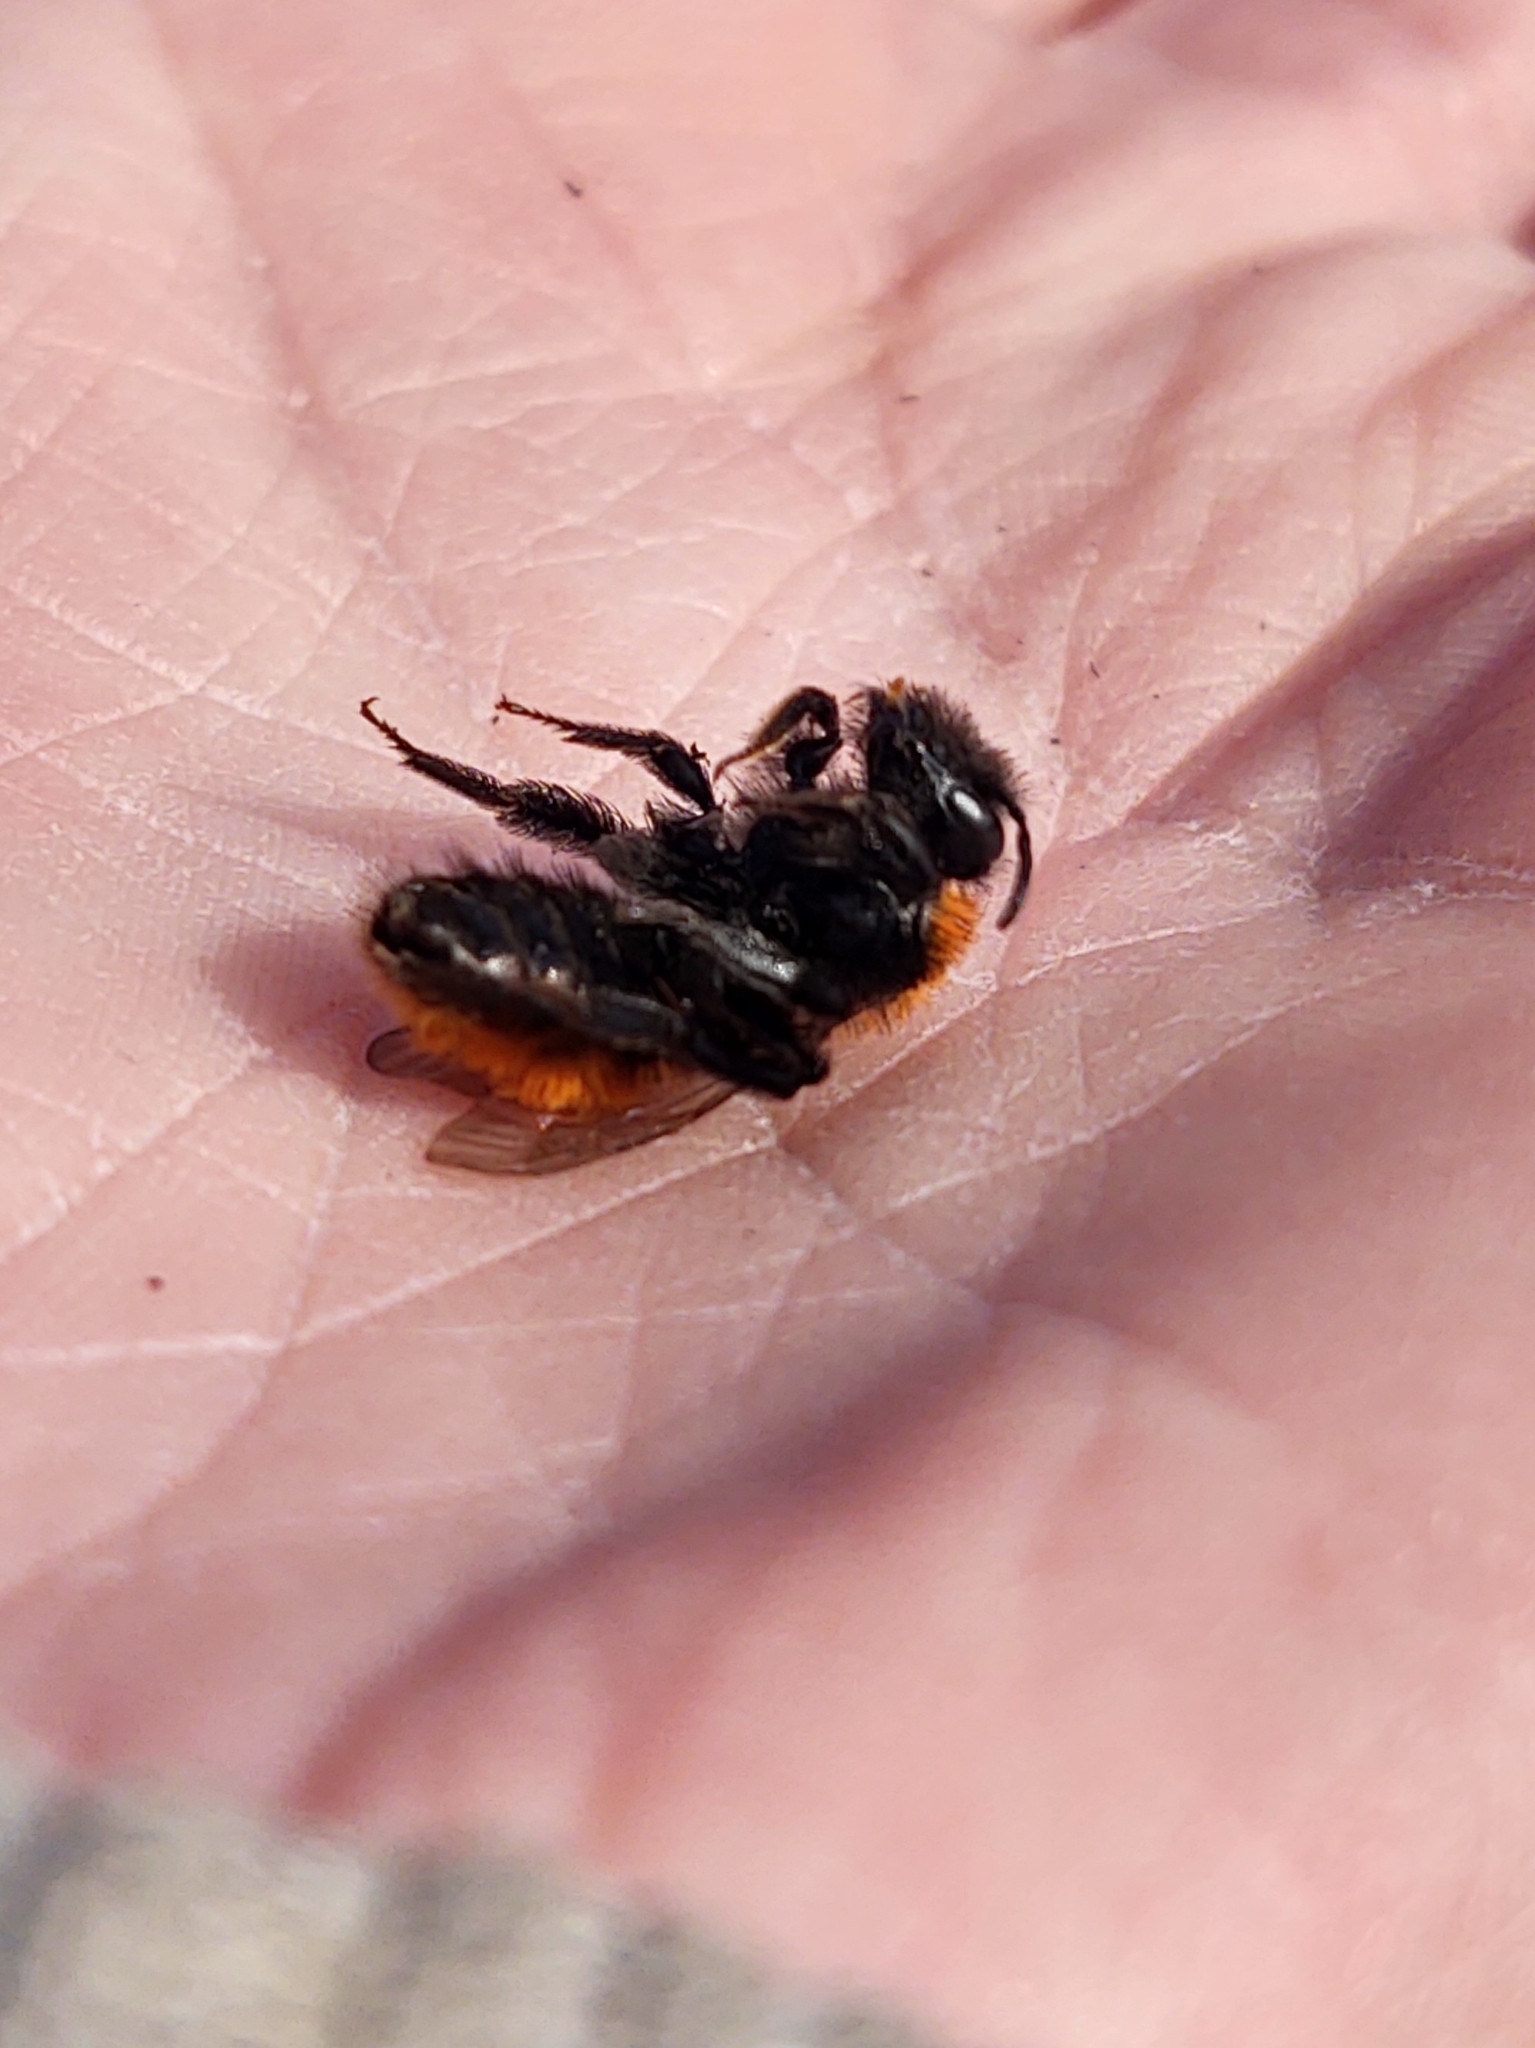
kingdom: Animalia
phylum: Arthropoda
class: Insecta
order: Hymenoptera
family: Andrenidae
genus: Andrena
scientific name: Andrena fulva
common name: Tawny mining bee
